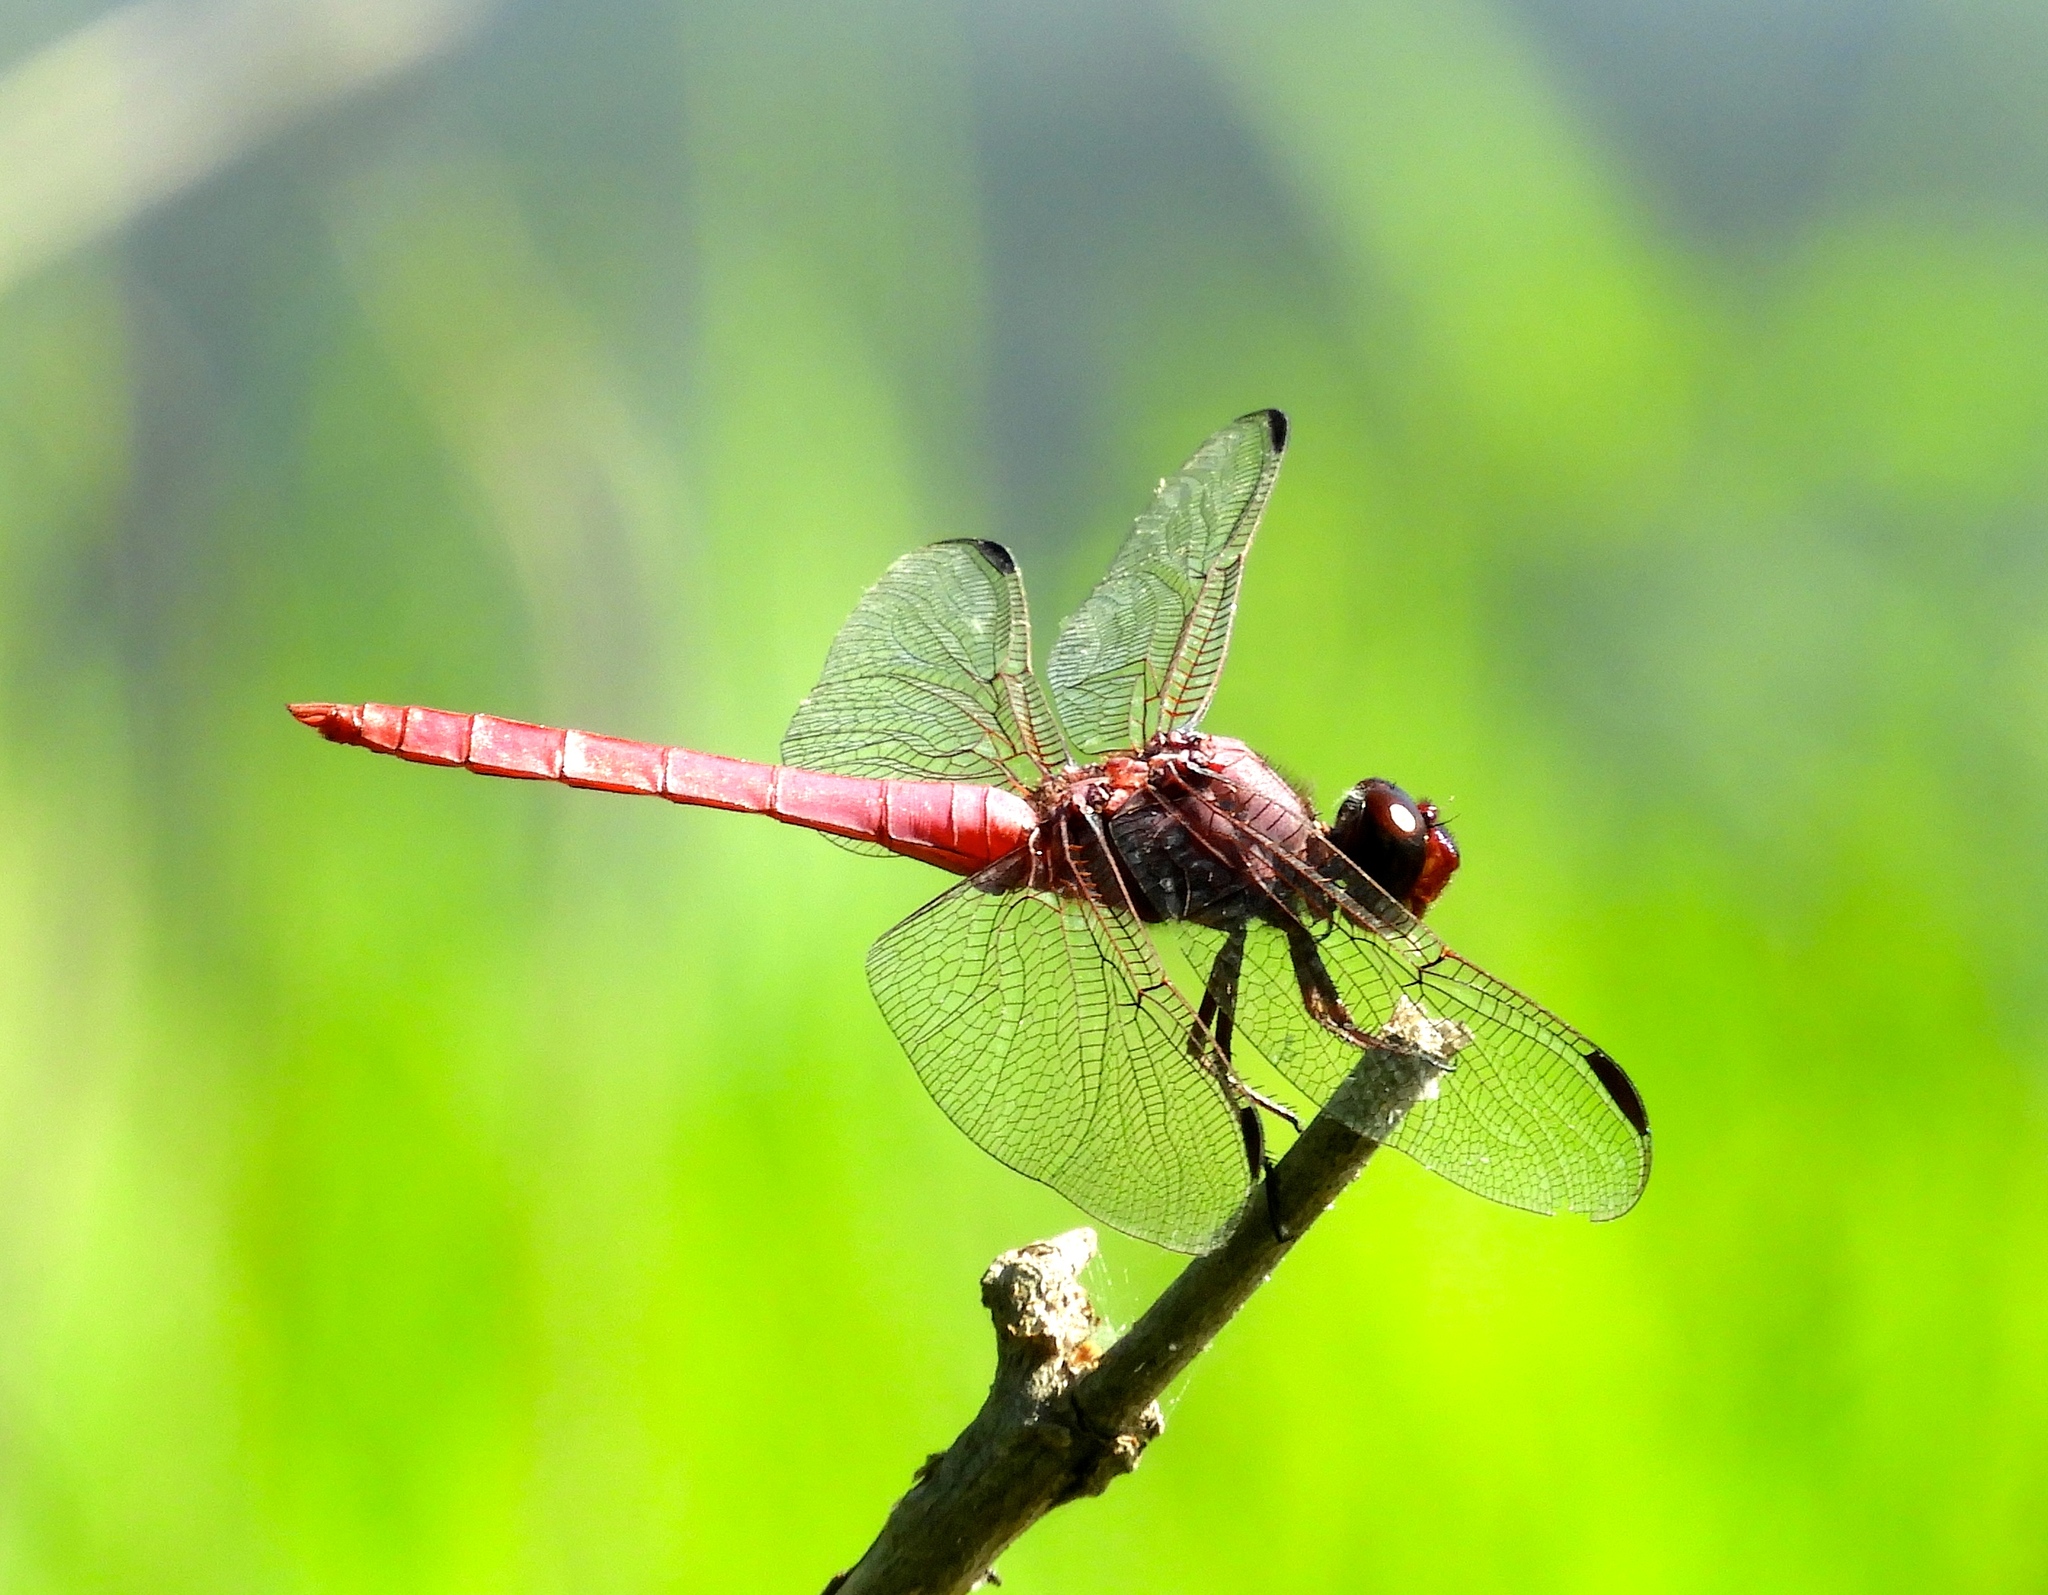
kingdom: Animalia
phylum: Arthropoda
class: Insecta
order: Odonata
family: Libellulidae
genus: Orthemis
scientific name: Orthemis ferruginea
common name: Roseate skimmer
